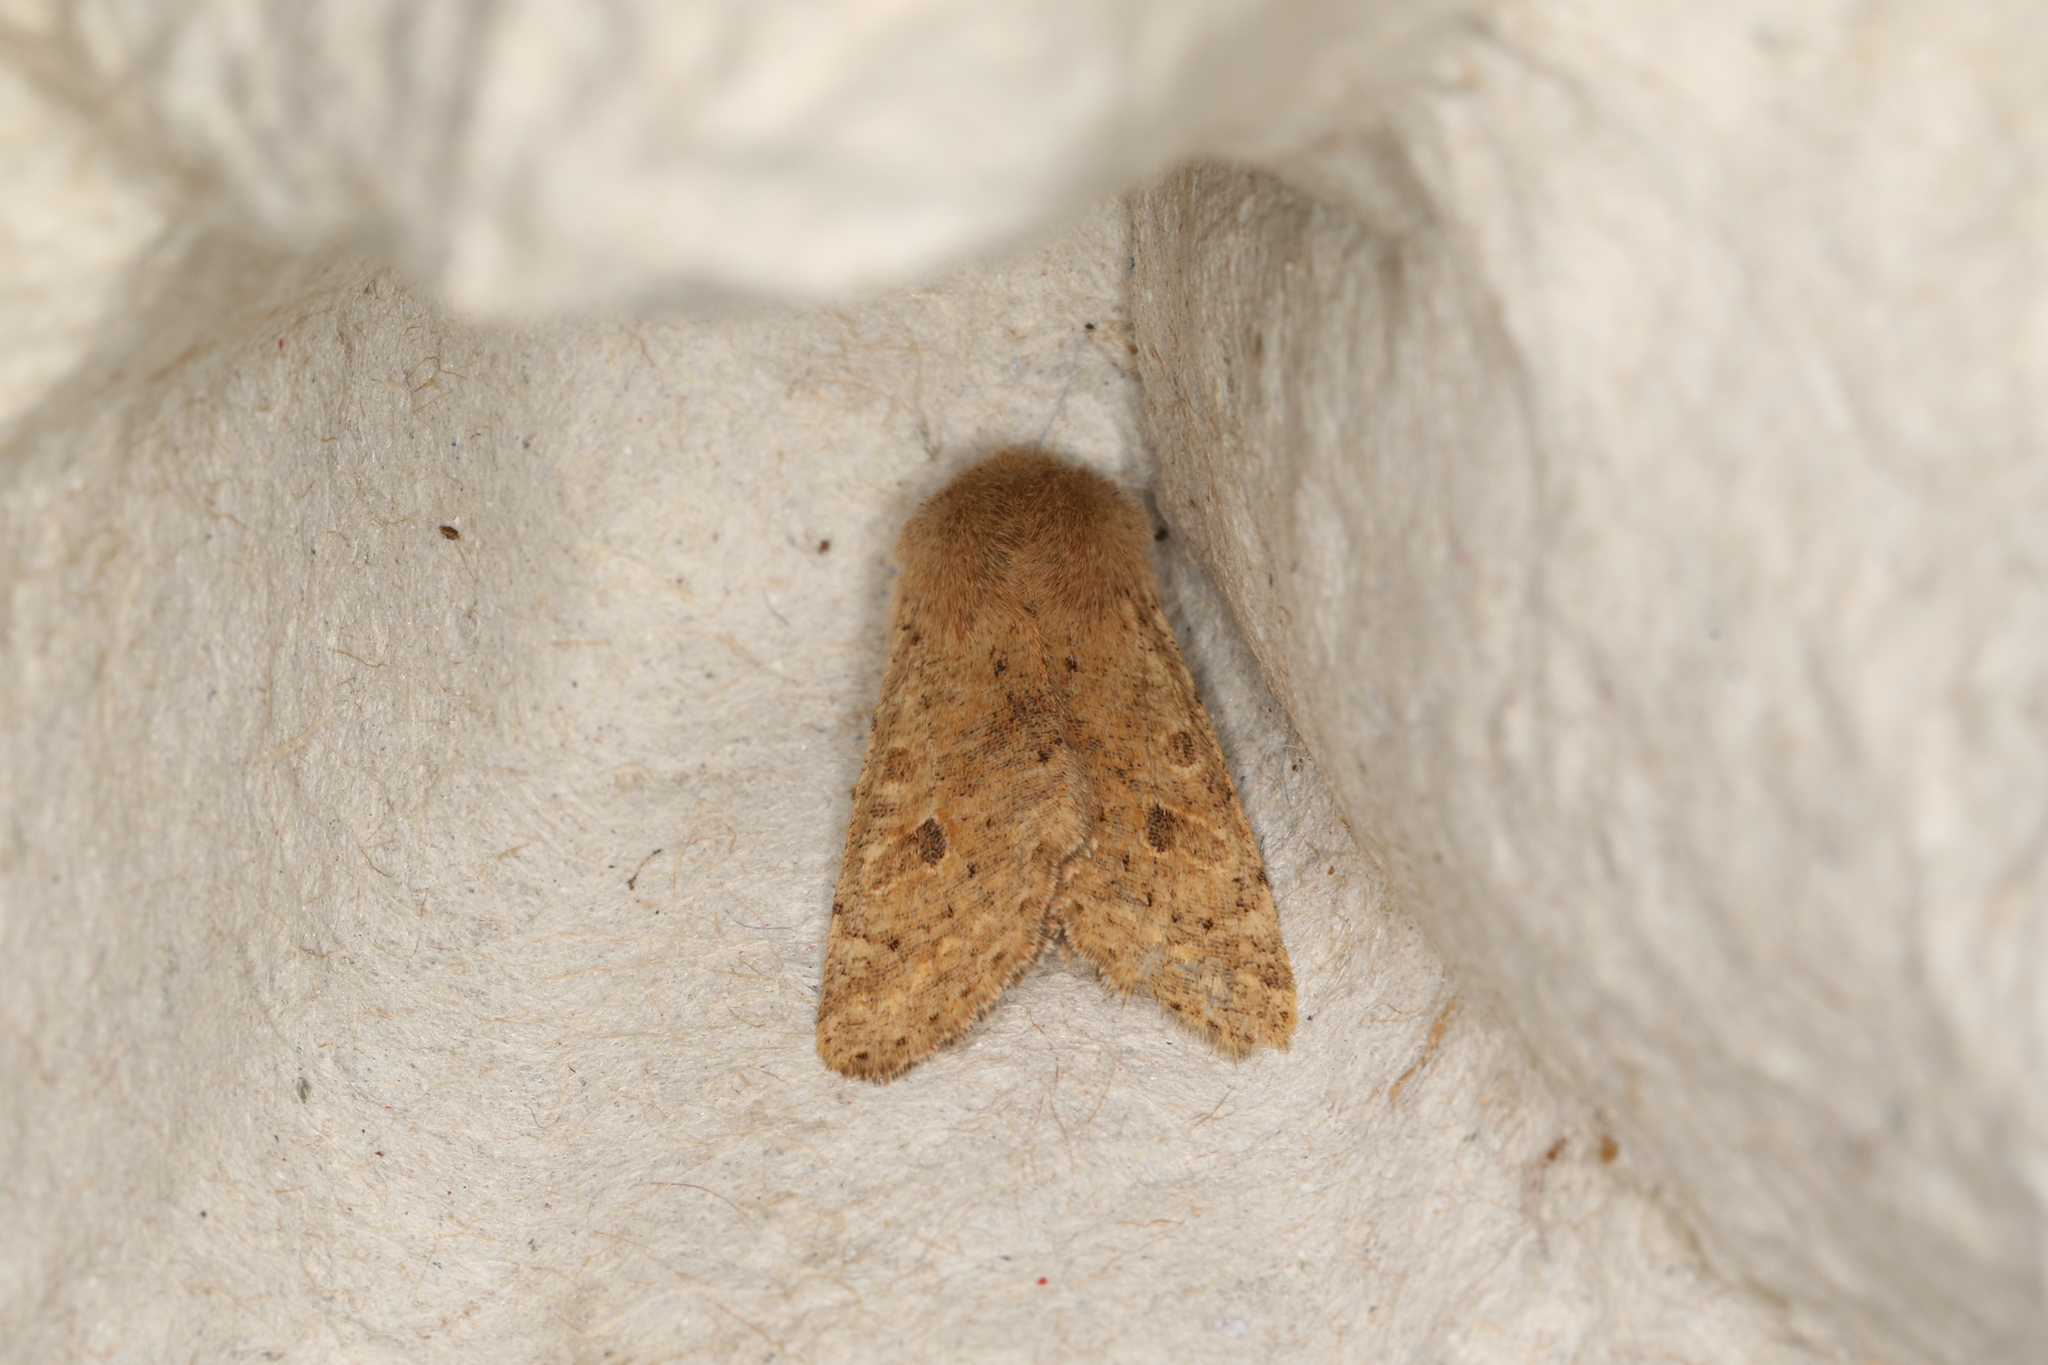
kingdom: Animalia
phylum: Arthropoda
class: Insecta
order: Lepidoptera
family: Noctuidae
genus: Orthosia
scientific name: Orthosia cruda
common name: Small quaker
